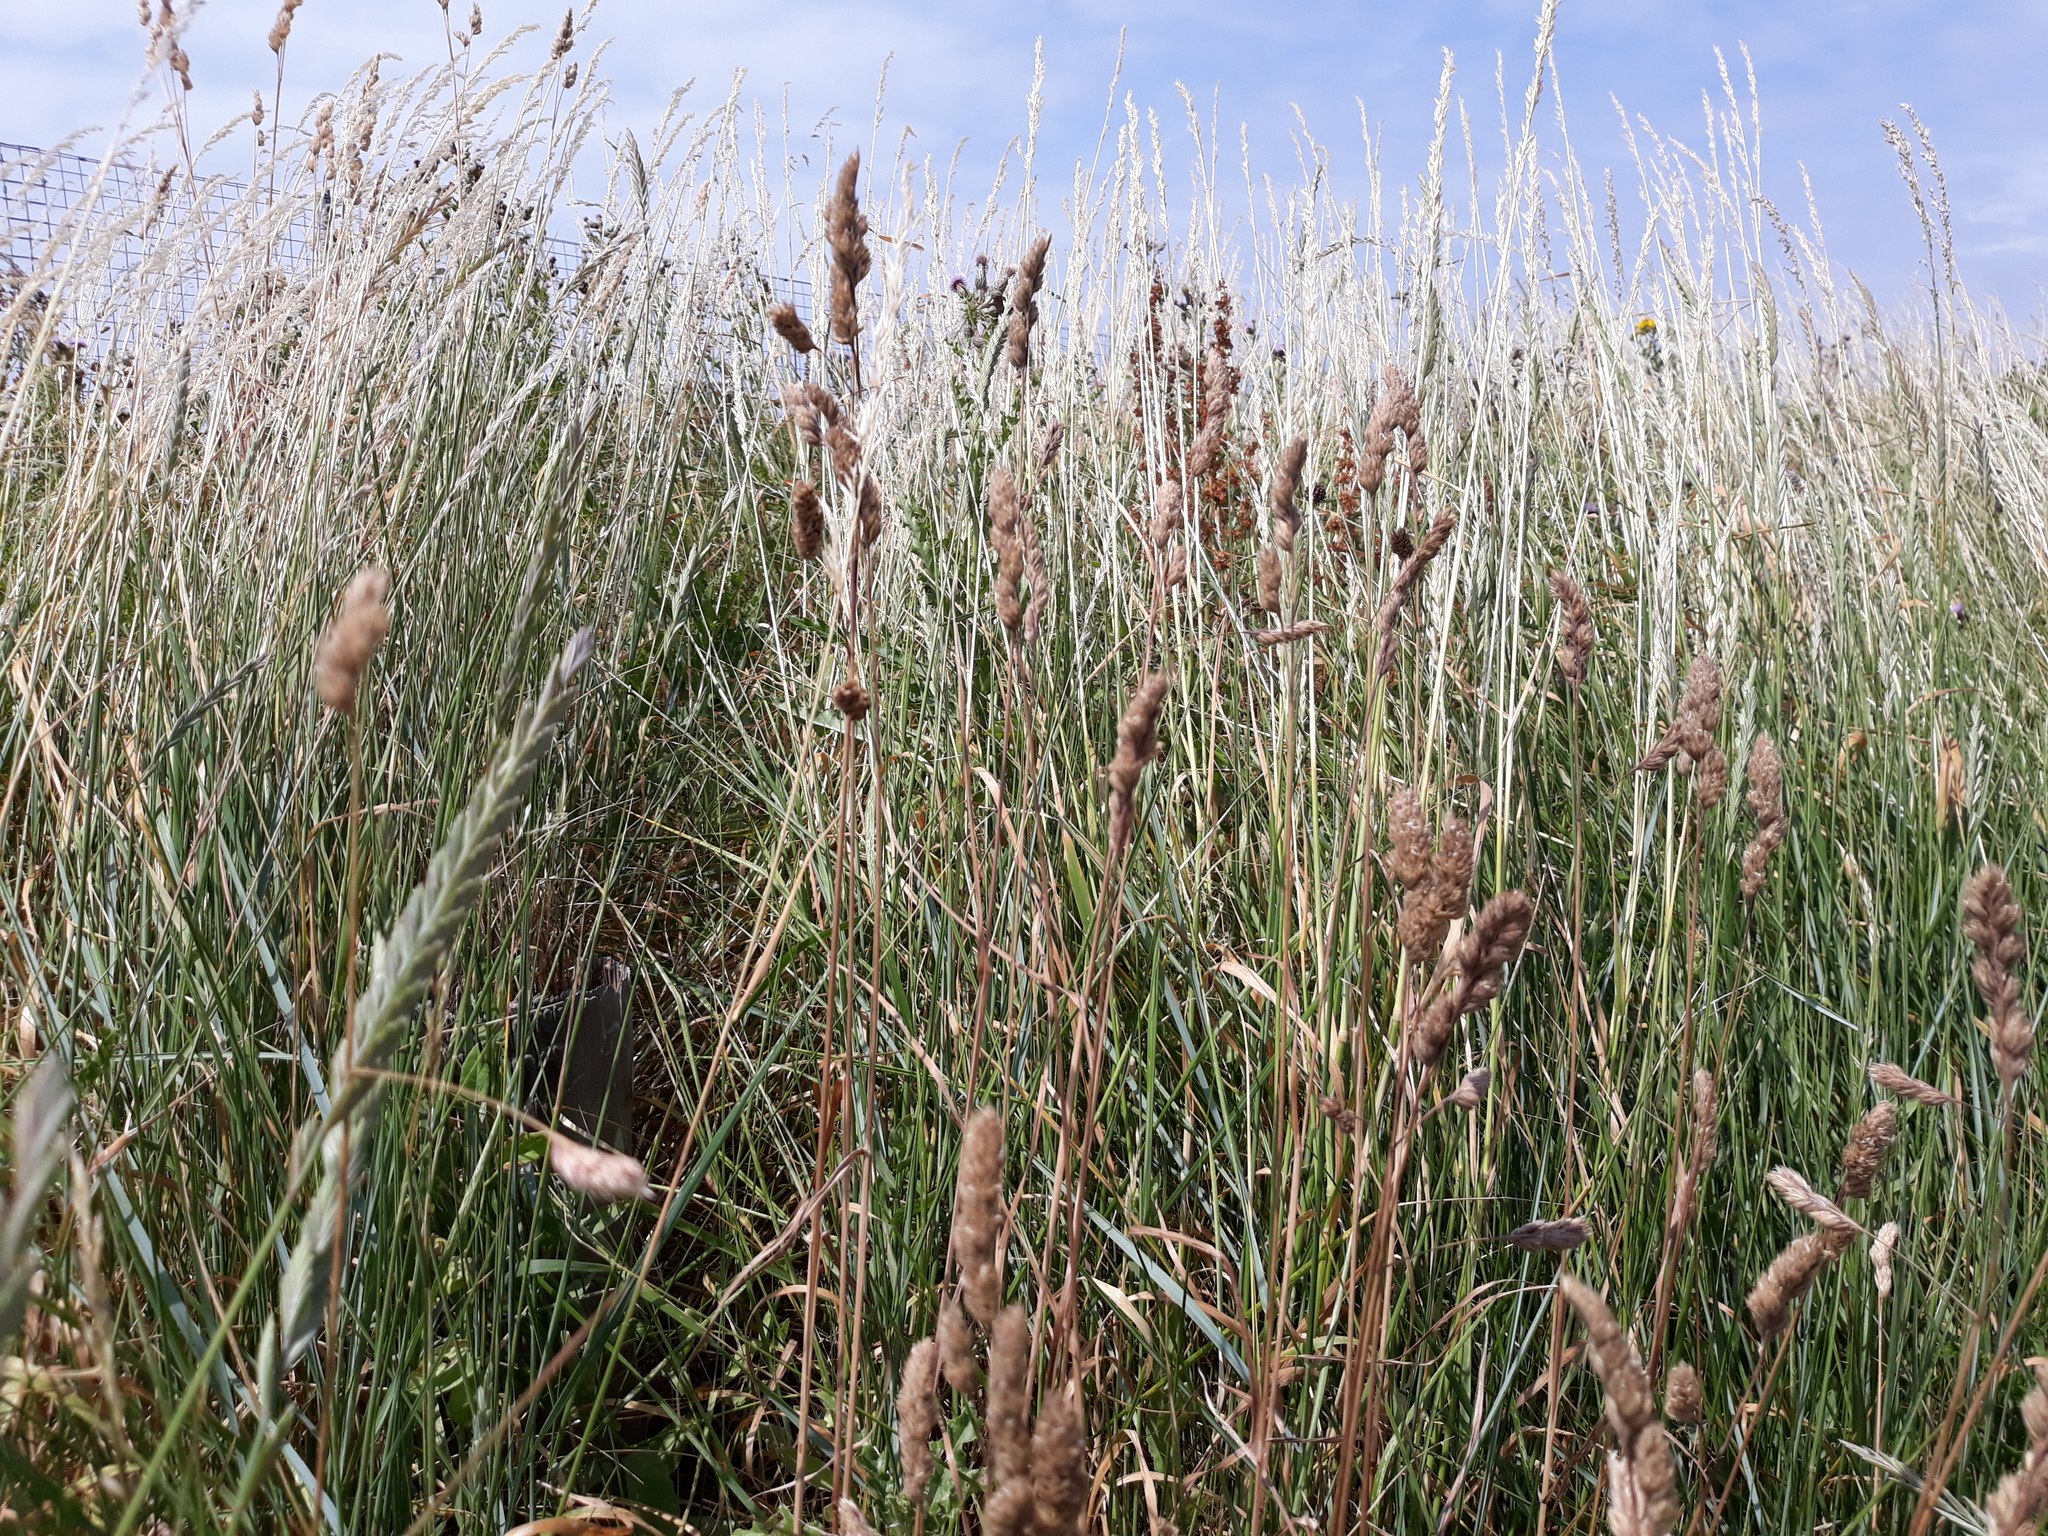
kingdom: Plantae
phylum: Tracheophyta
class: Liliopsida
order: Poales
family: Poaceae
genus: Dactylis
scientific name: Dactylis glomerata
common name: Orchardgrass
